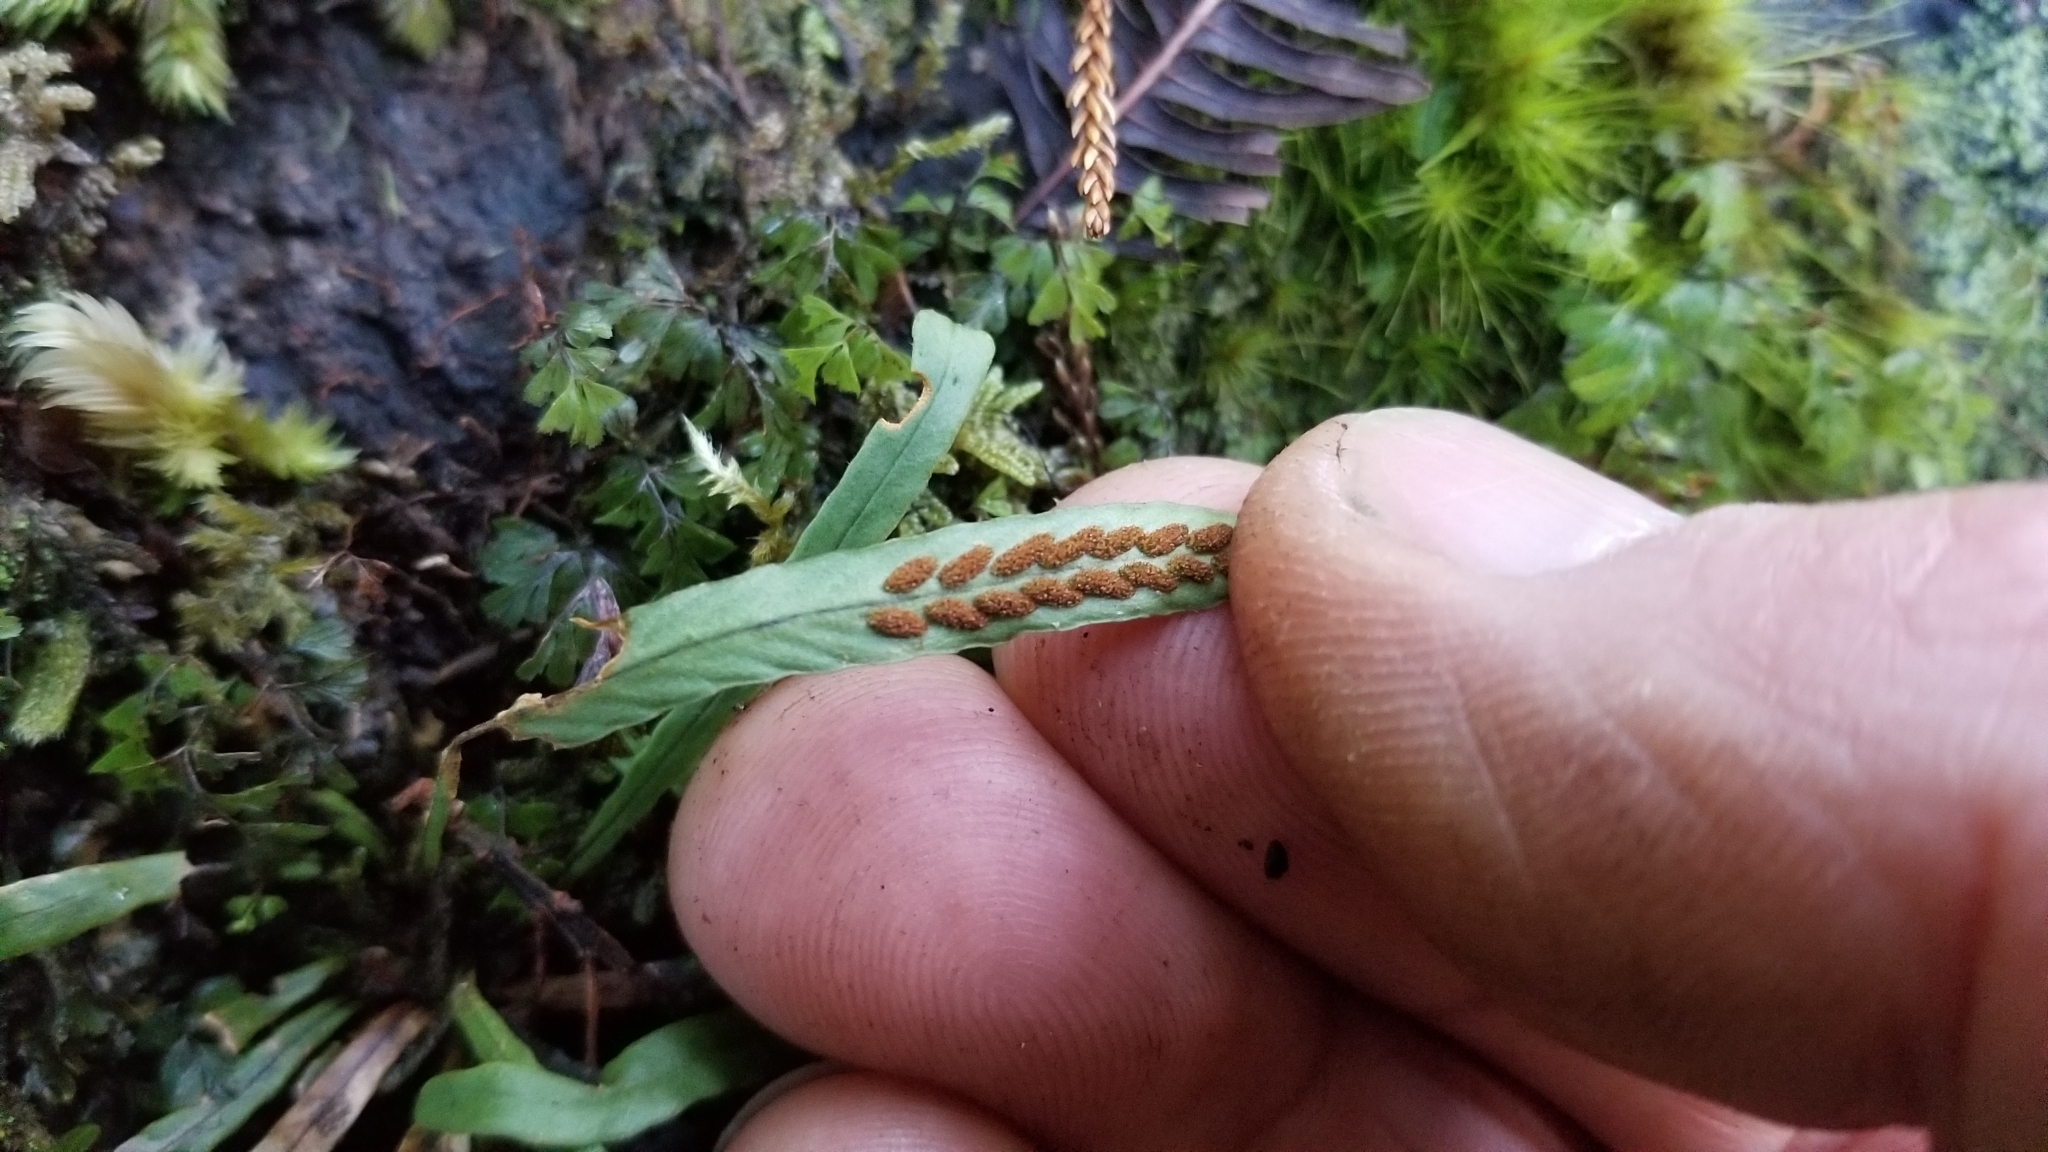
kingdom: Plantae
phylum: Tracheophyta
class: Polypodiopsida
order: Polypodiales
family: Polypodiaceae
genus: Notogrammitis
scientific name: Notogrammitis billardierei
